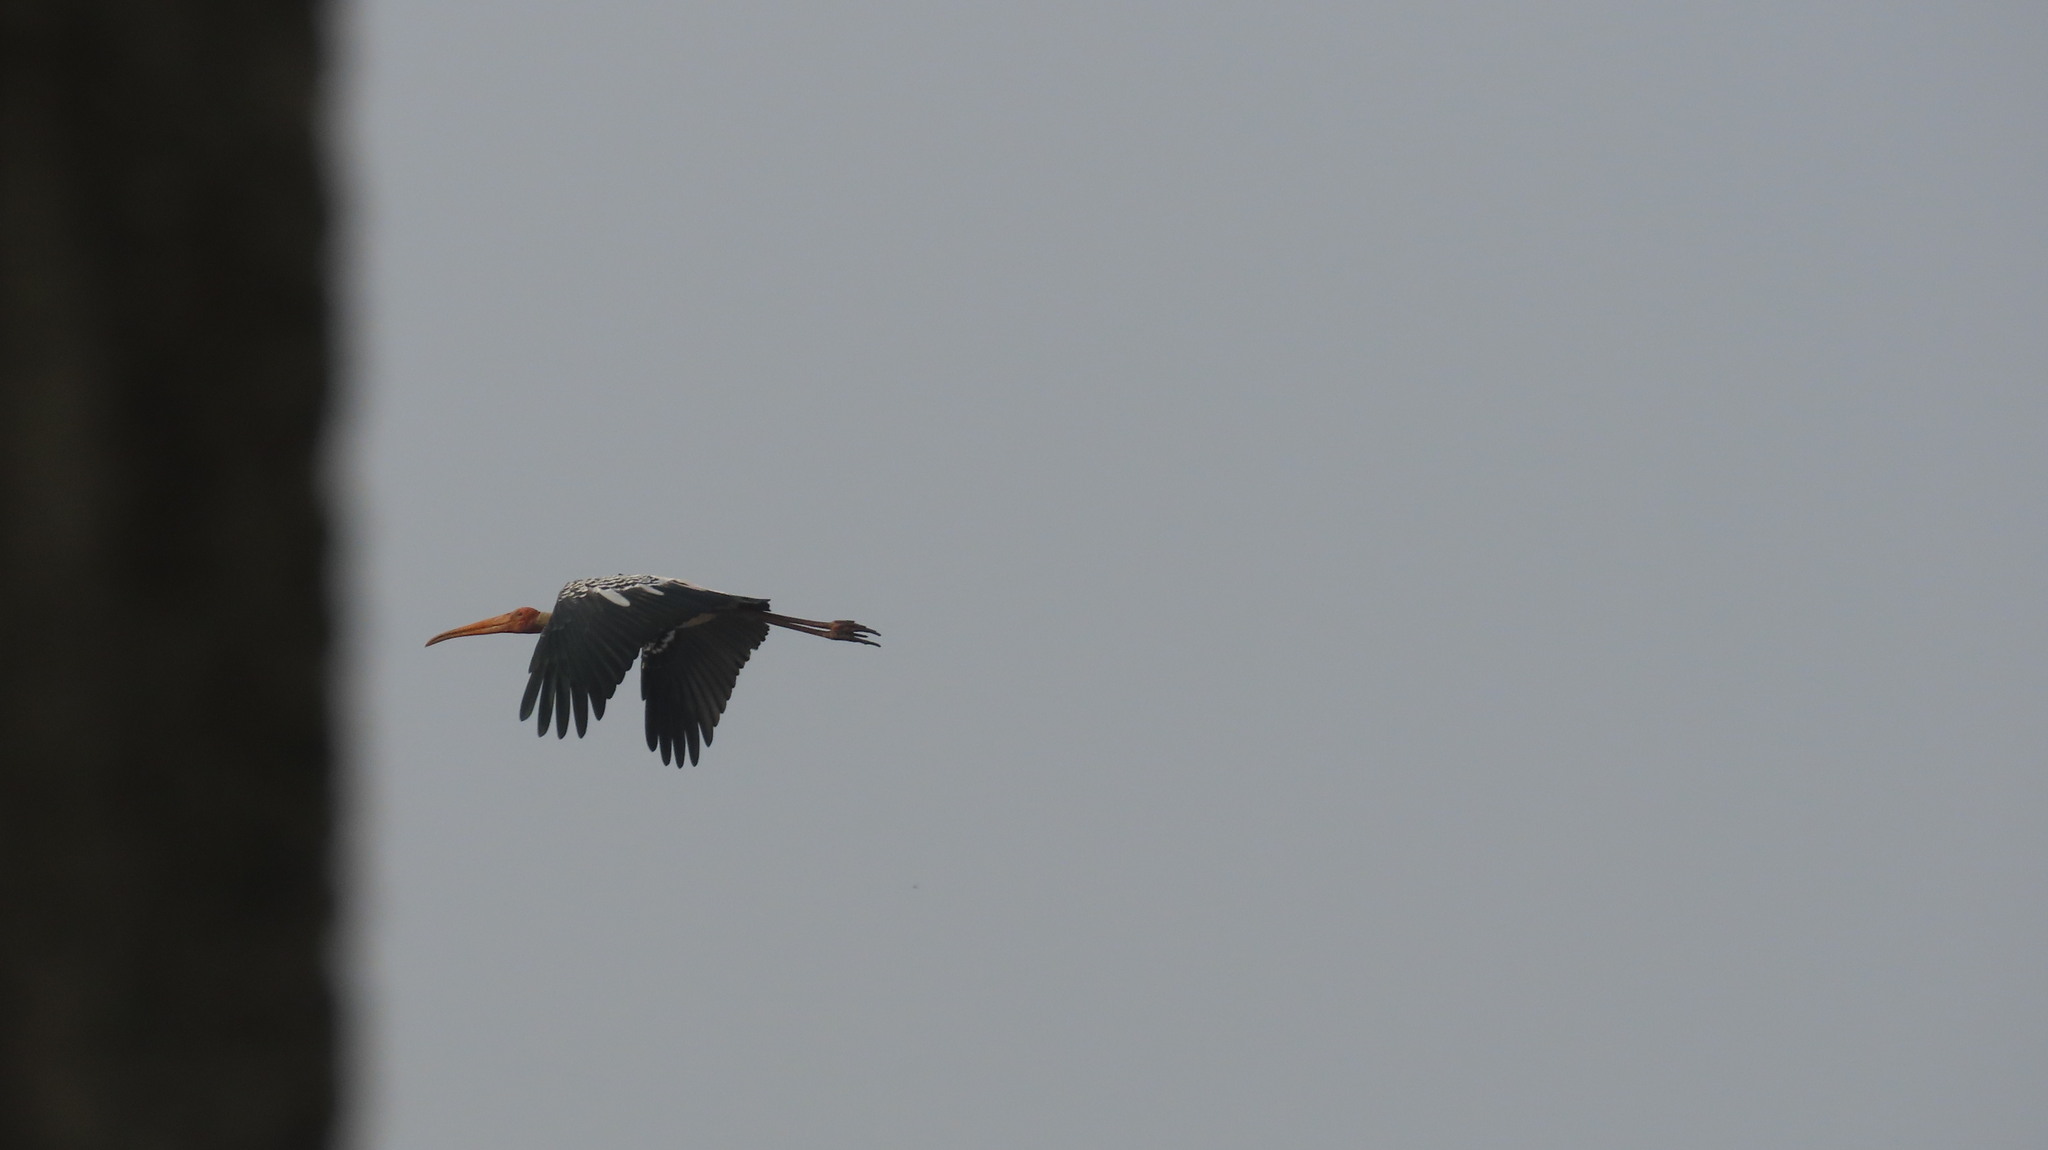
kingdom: Animalia
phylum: Chordata
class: Aves
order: Ciconiiformes
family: Ciconiidae
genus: Mycteria
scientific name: Mycteria leucocephala
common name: Painted stork
